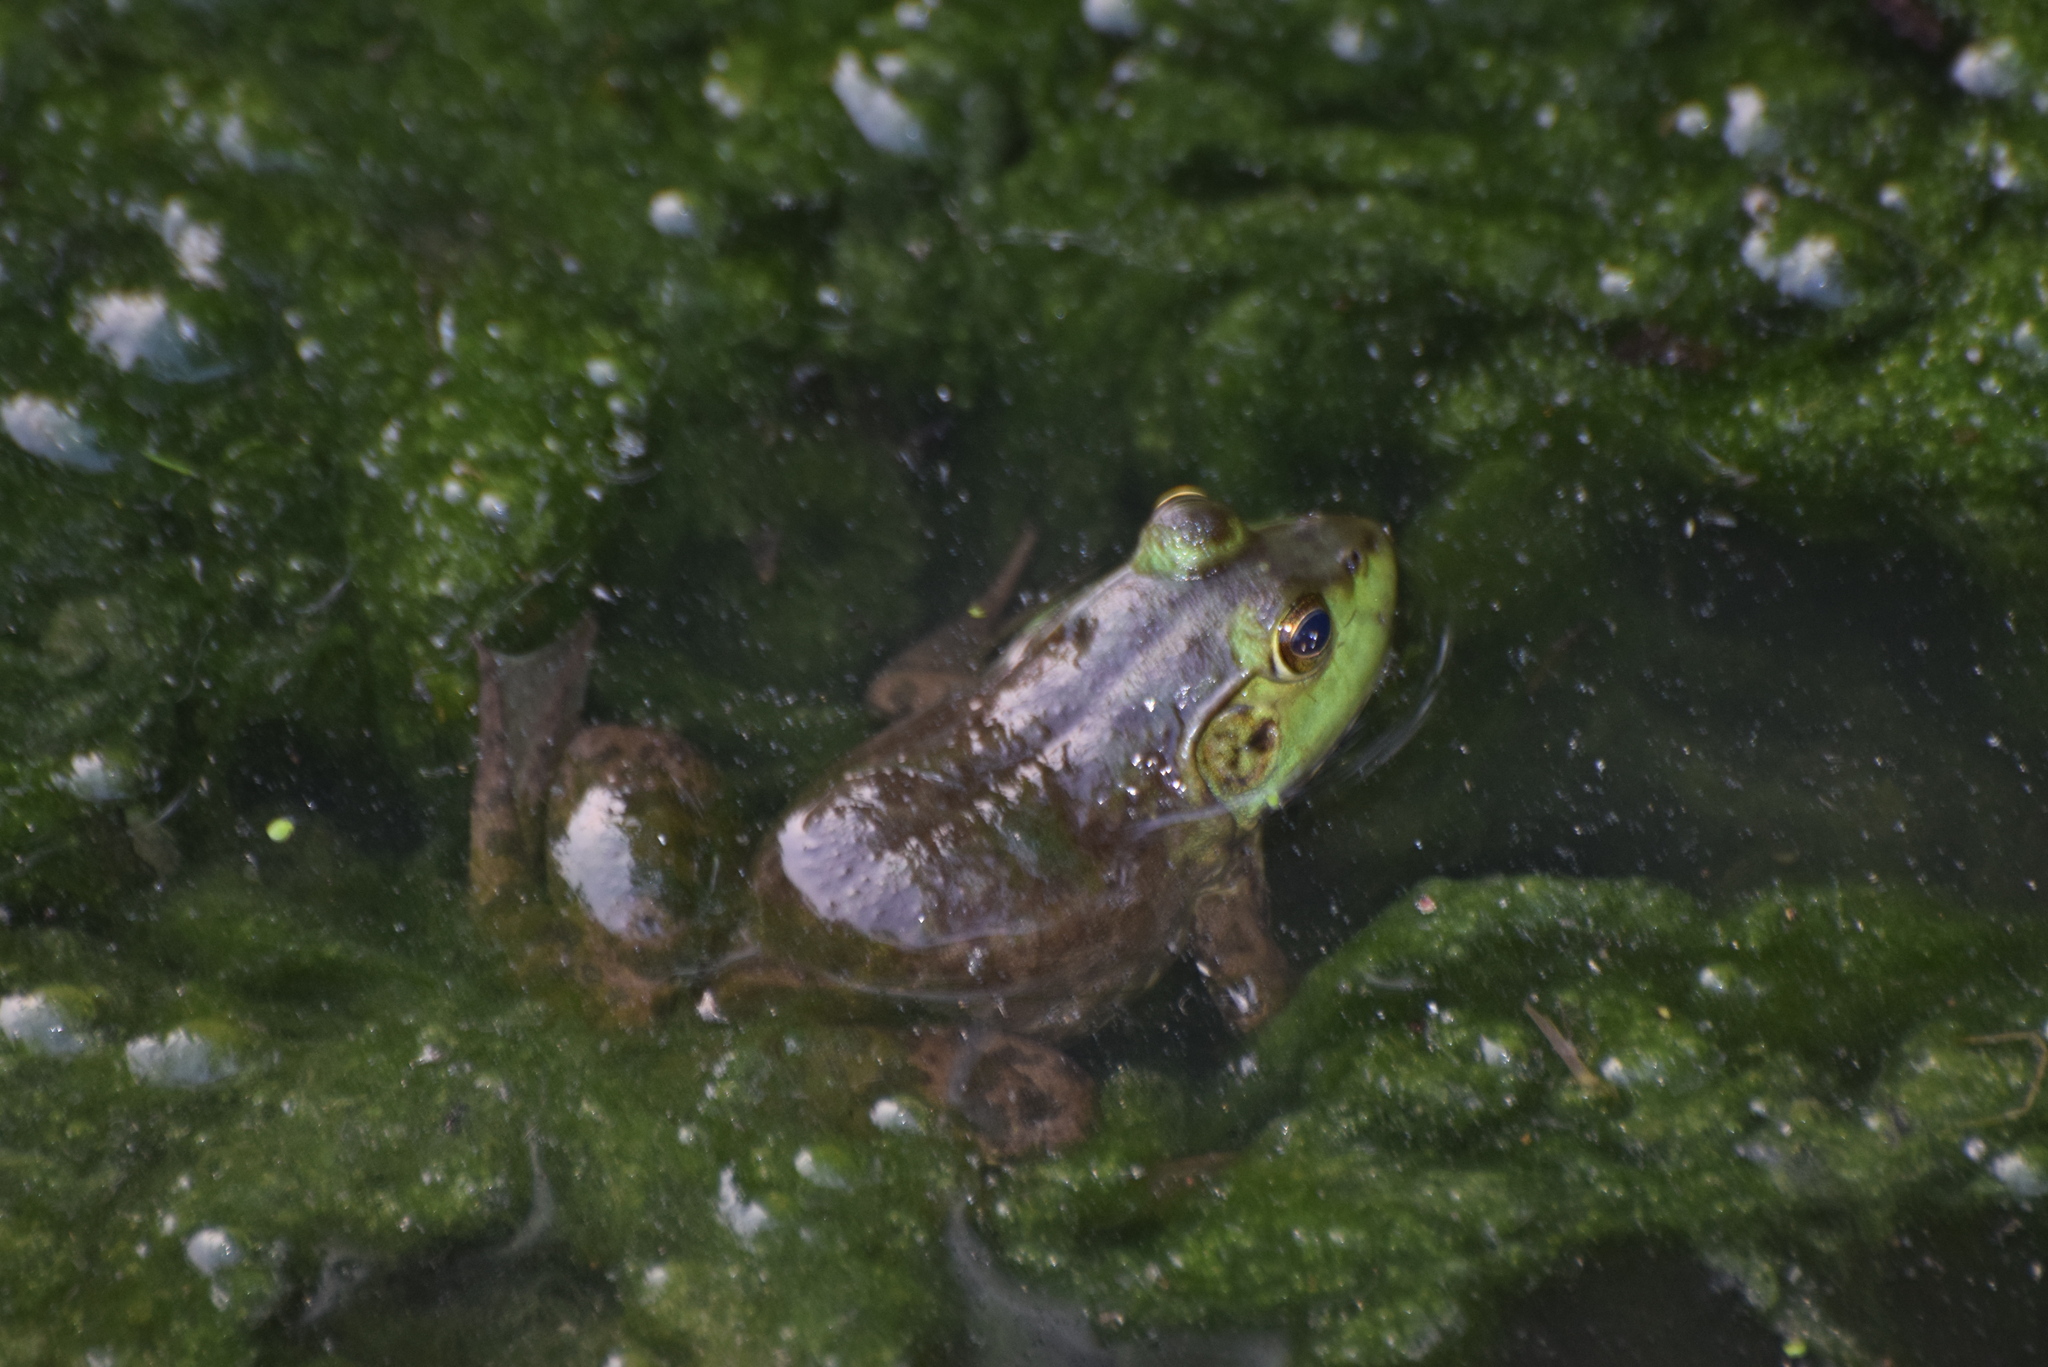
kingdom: Animalia
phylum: Chordata
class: Amphibia
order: Anura
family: Ranidae
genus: Lithobates
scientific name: Lithobates catesbeianus
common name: American bullfrog
